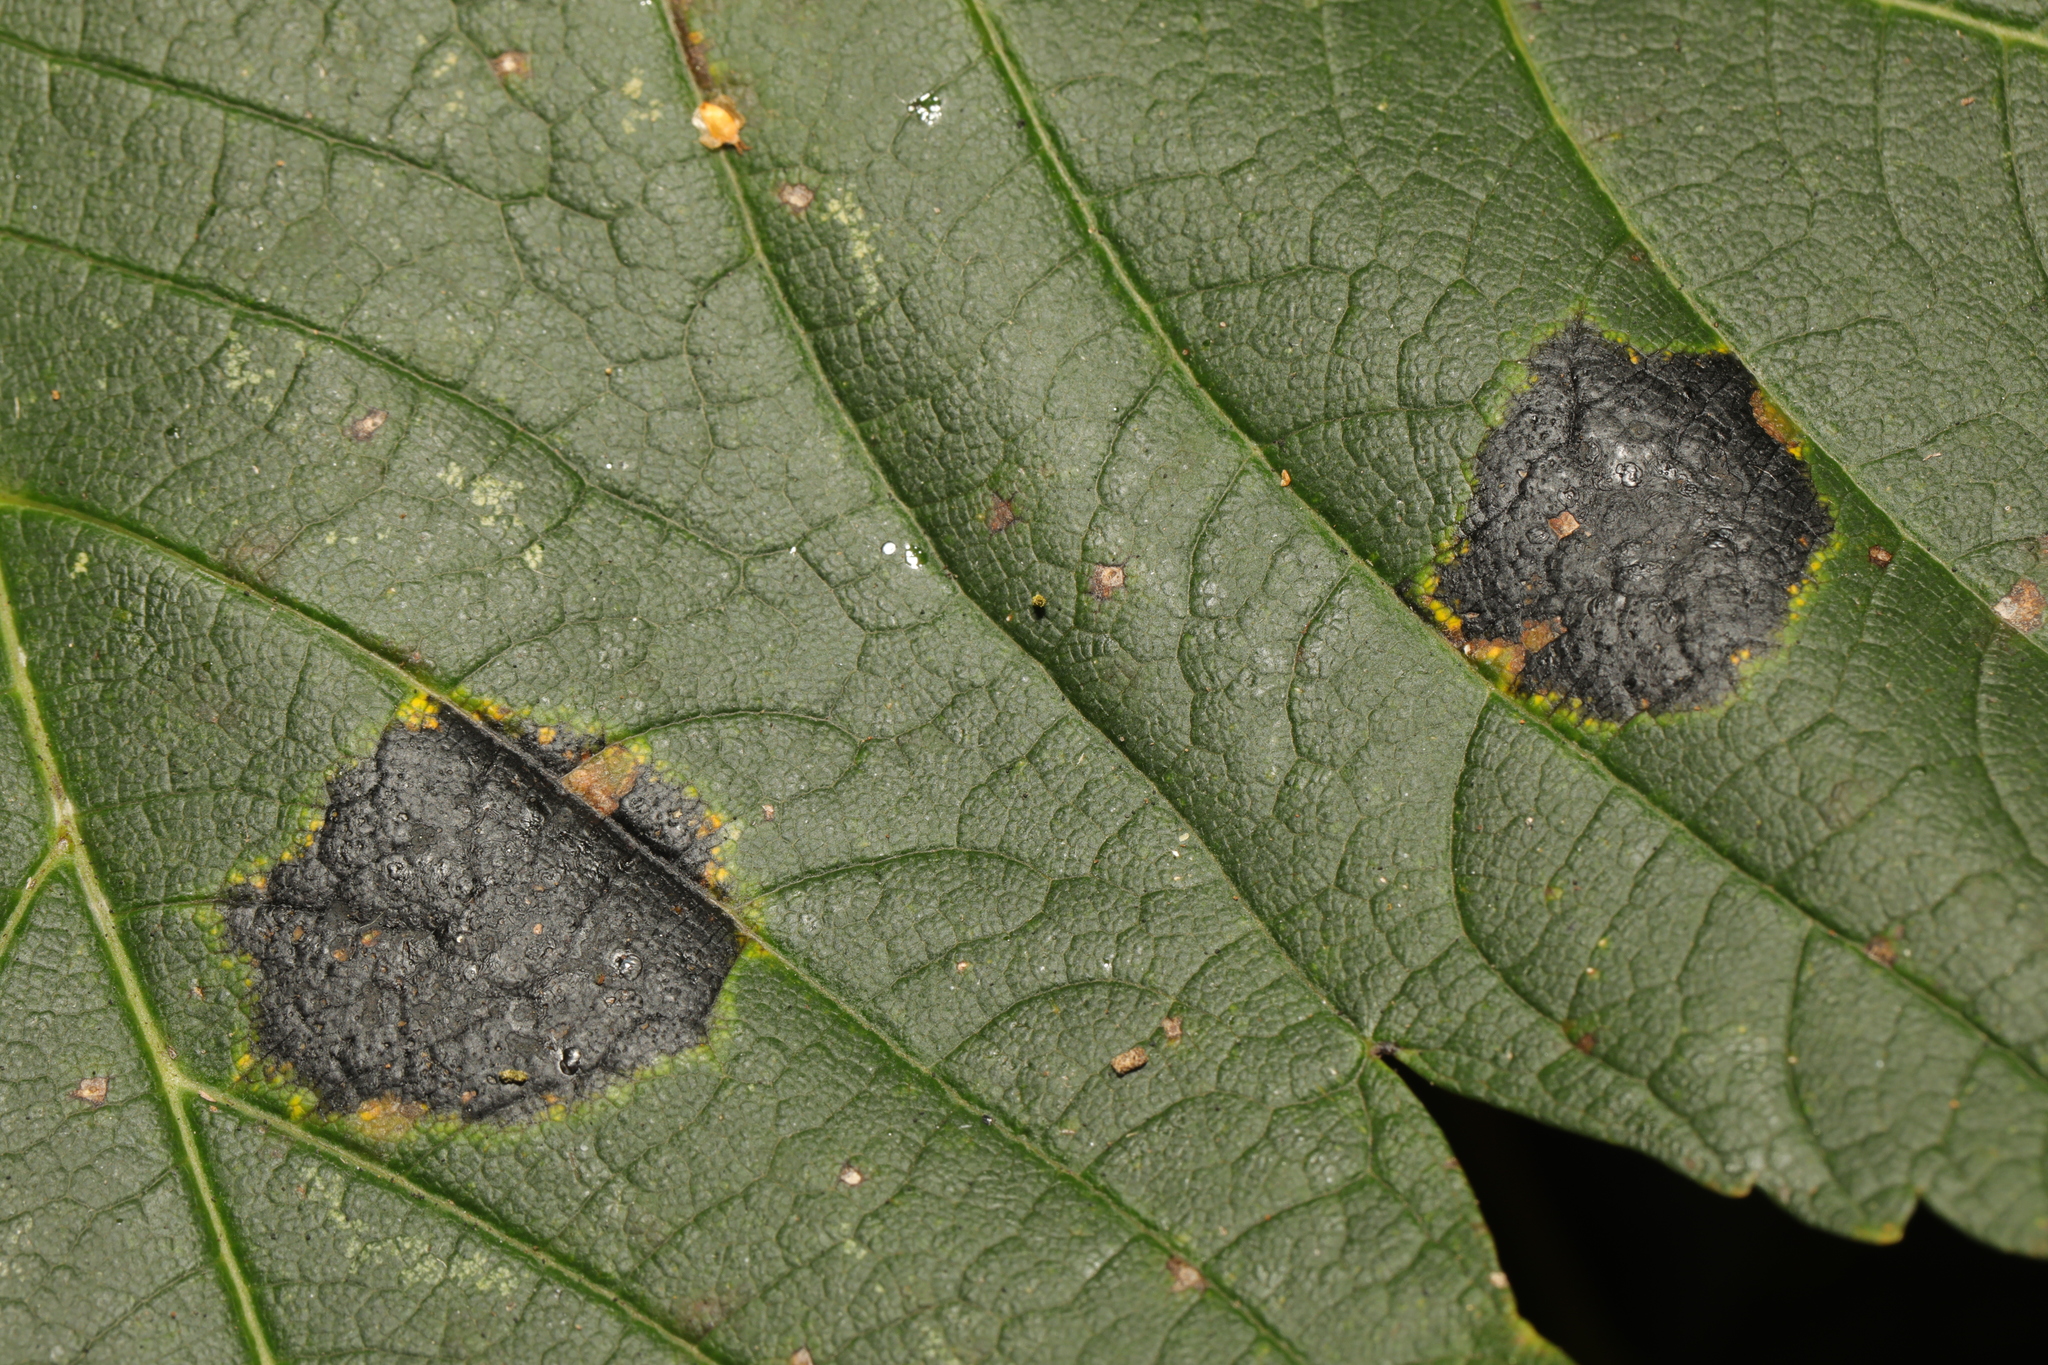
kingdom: Fungi
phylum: Ascomycota
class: Leotiomycetes
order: Rhytismatales
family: Rhytismataceae
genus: Rhytisma
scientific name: Rhytisma acerinum
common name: European tar spot
